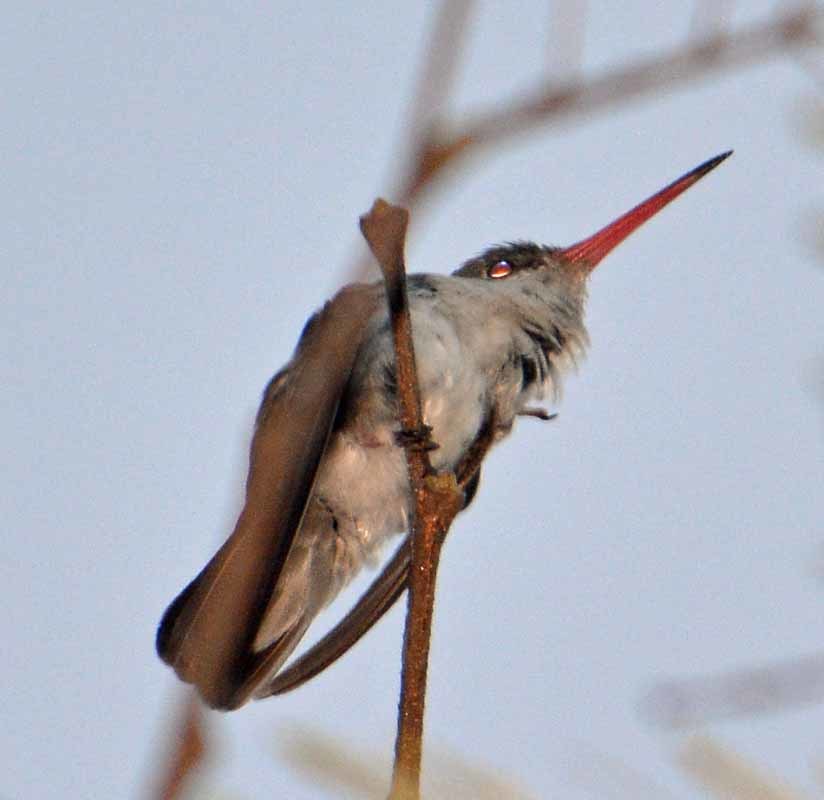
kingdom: Animalia
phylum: Chordata
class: Aves
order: Apodiformes
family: Trochilidae
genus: Leucolia
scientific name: Leucolia violiceps
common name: Violet-crowned hummingbird
